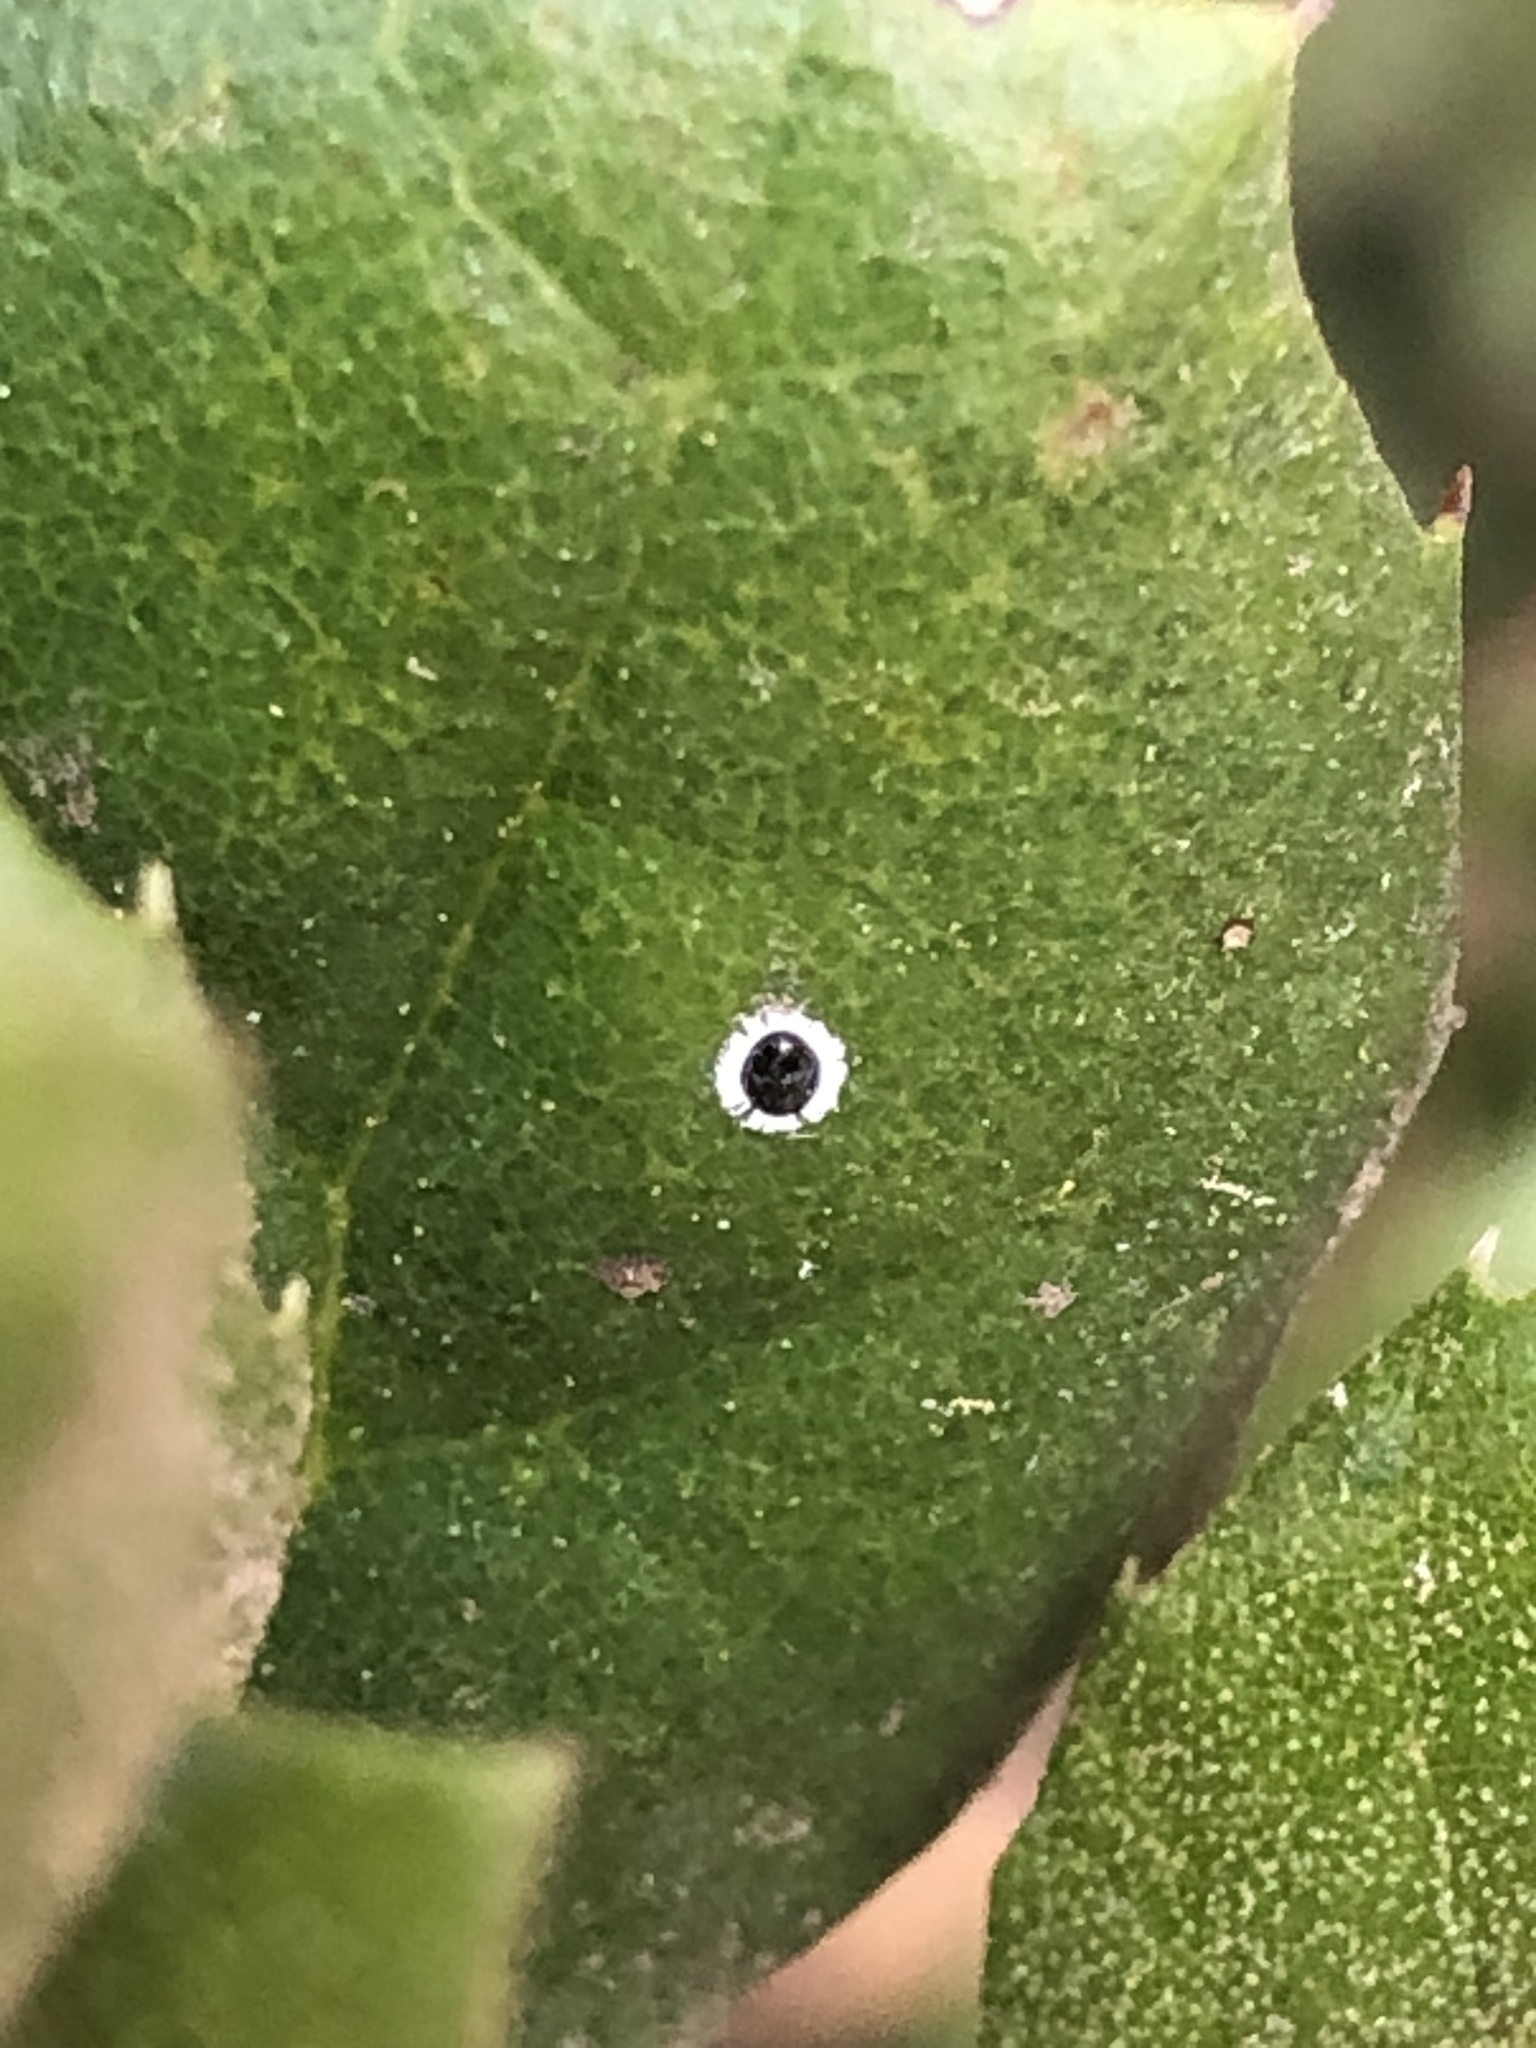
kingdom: Animalia
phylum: Arthropoda
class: Insecta
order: Hemiptera
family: Aleyrodidae
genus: Tetraleurodes
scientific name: Tetraleurodes perileuca
